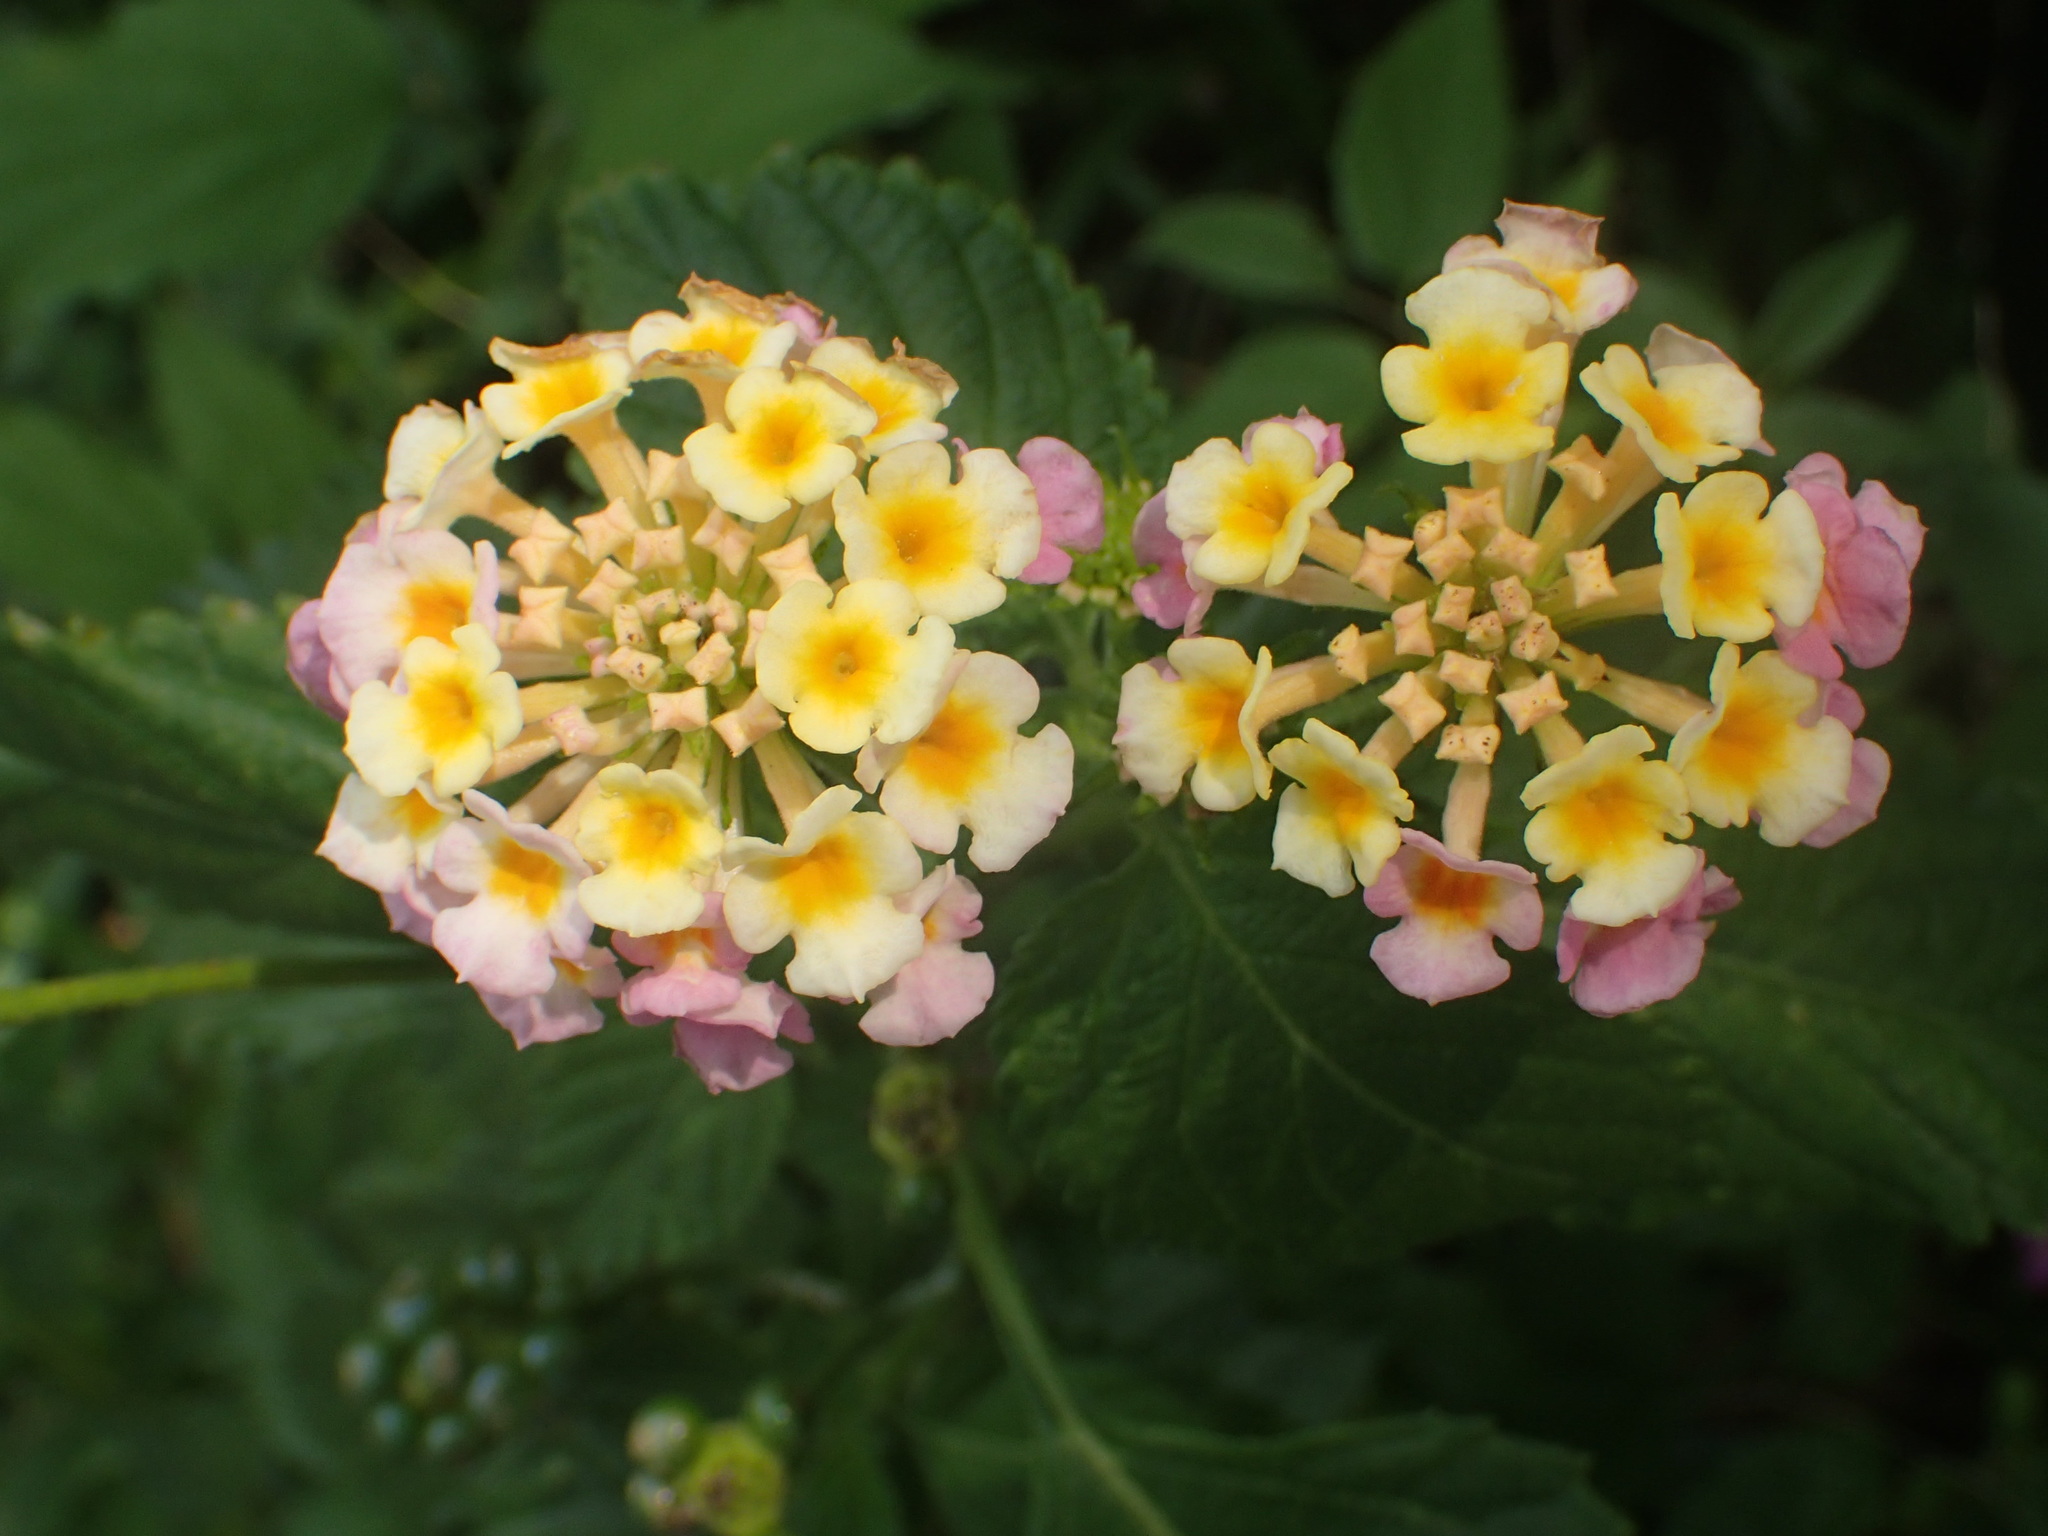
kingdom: Plantae
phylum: Tracheophyta
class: Magnoliopsida
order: Lamiales
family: Verbenaceae
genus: Lantana
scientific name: Lantana strigocamara
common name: Lantana
